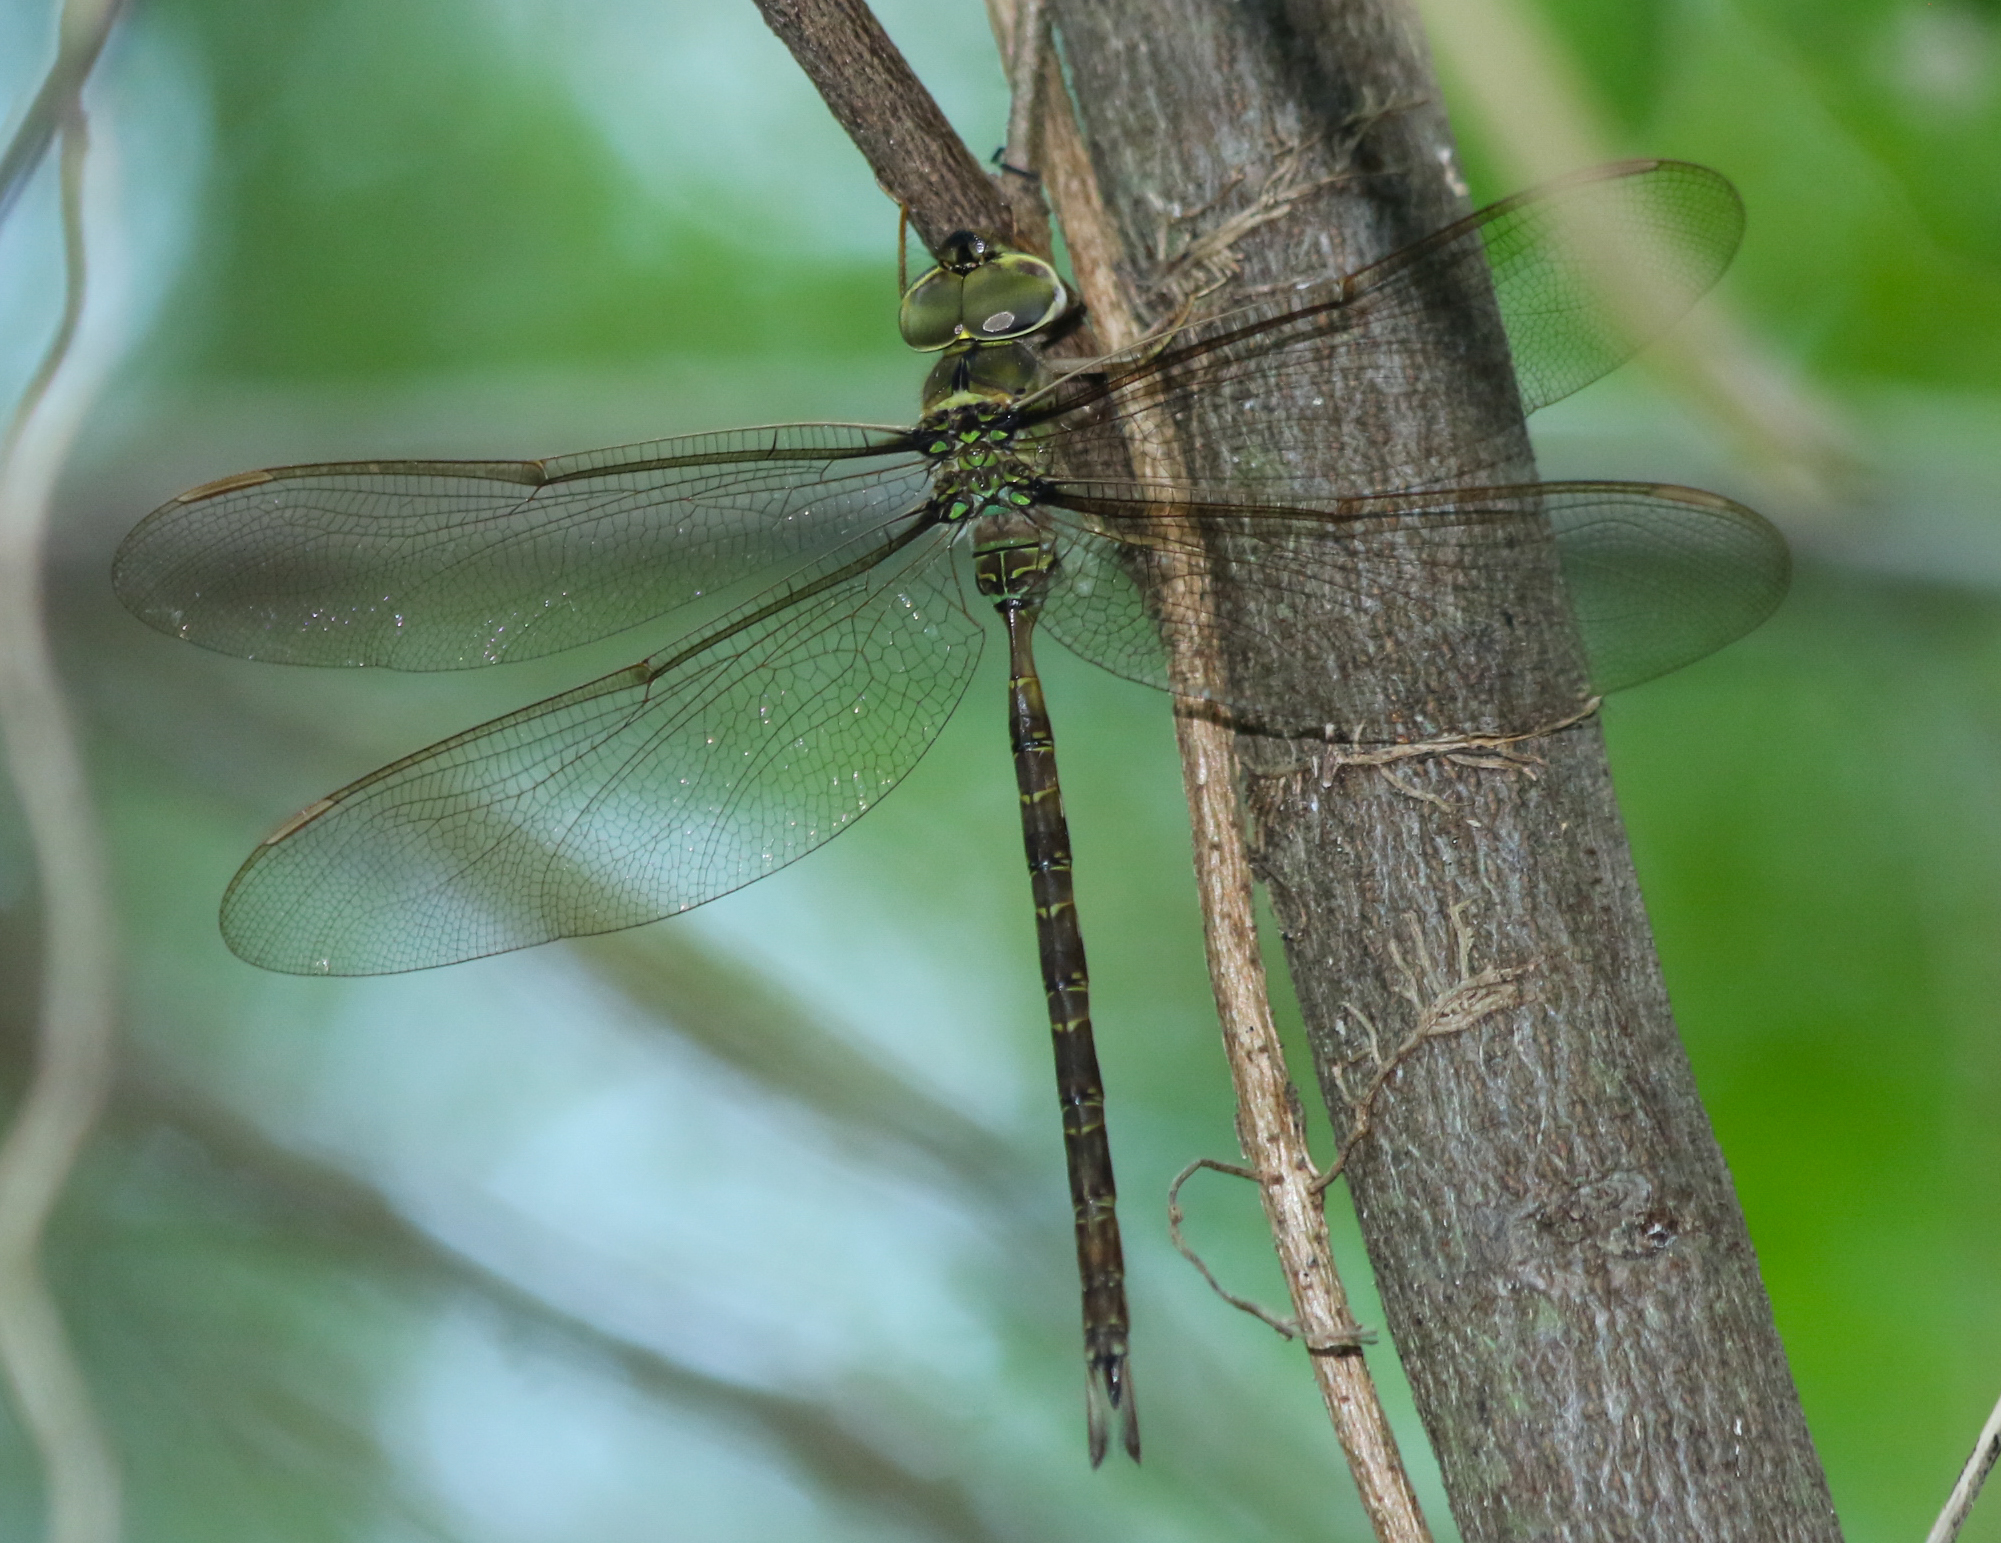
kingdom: Animalia
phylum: Arthropoda
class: Insecta
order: Odonata
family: Aeshnidae
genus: Gynacantha
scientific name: Gynacantha mexicana
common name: Bar-sided darner
